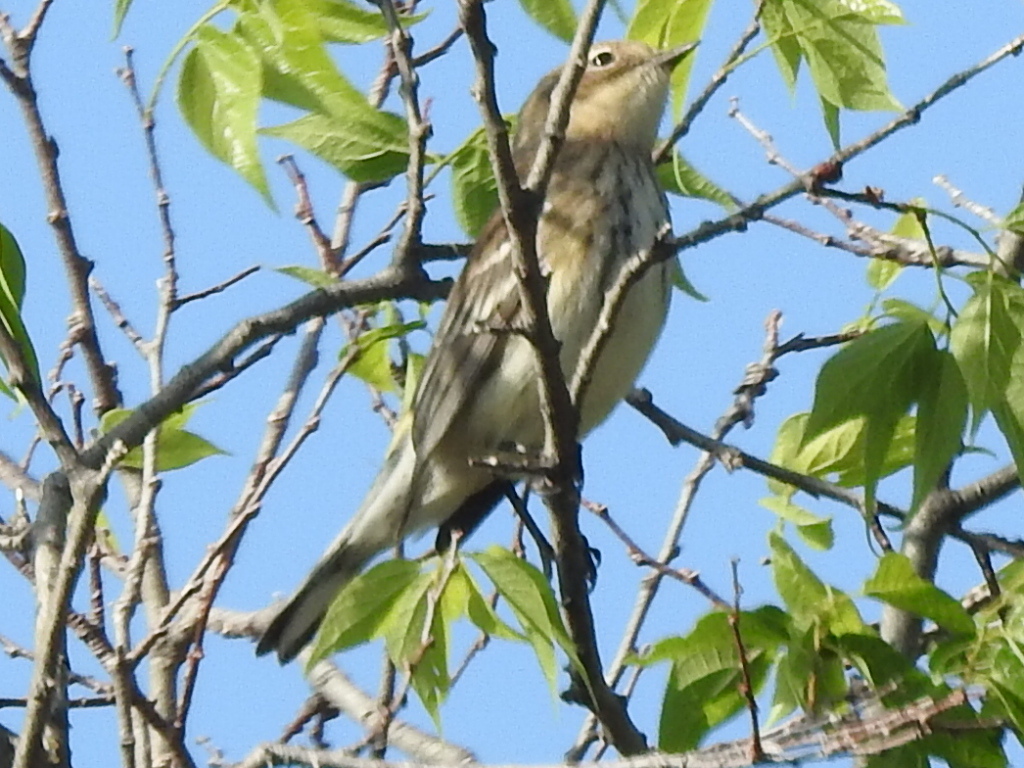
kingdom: Animalia
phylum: Chordata
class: Aves
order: Passeriformes
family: Parulidae
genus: Setophaga
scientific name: Setophaga coronata
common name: Myrtle warbler
